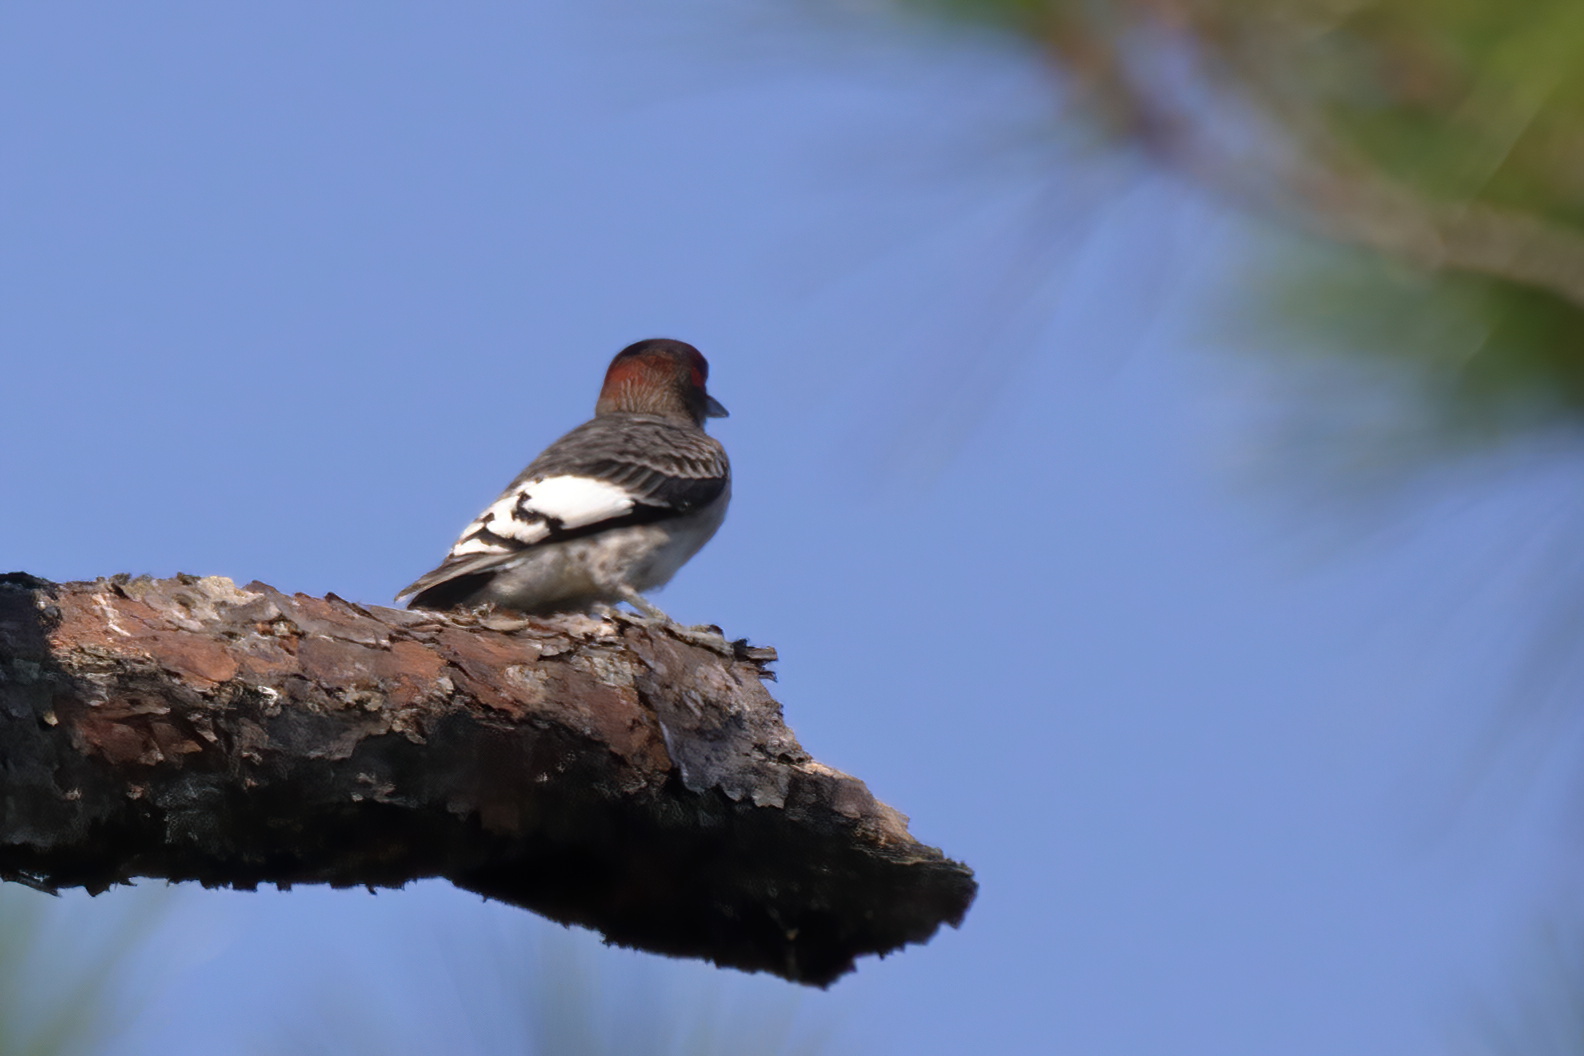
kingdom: Animalia
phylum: Chordata
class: Aves
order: Piciformes
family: Picidae
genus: Melanerpes
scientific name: Melanerpes erythrocephalus
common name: Red-headed woodpecker
